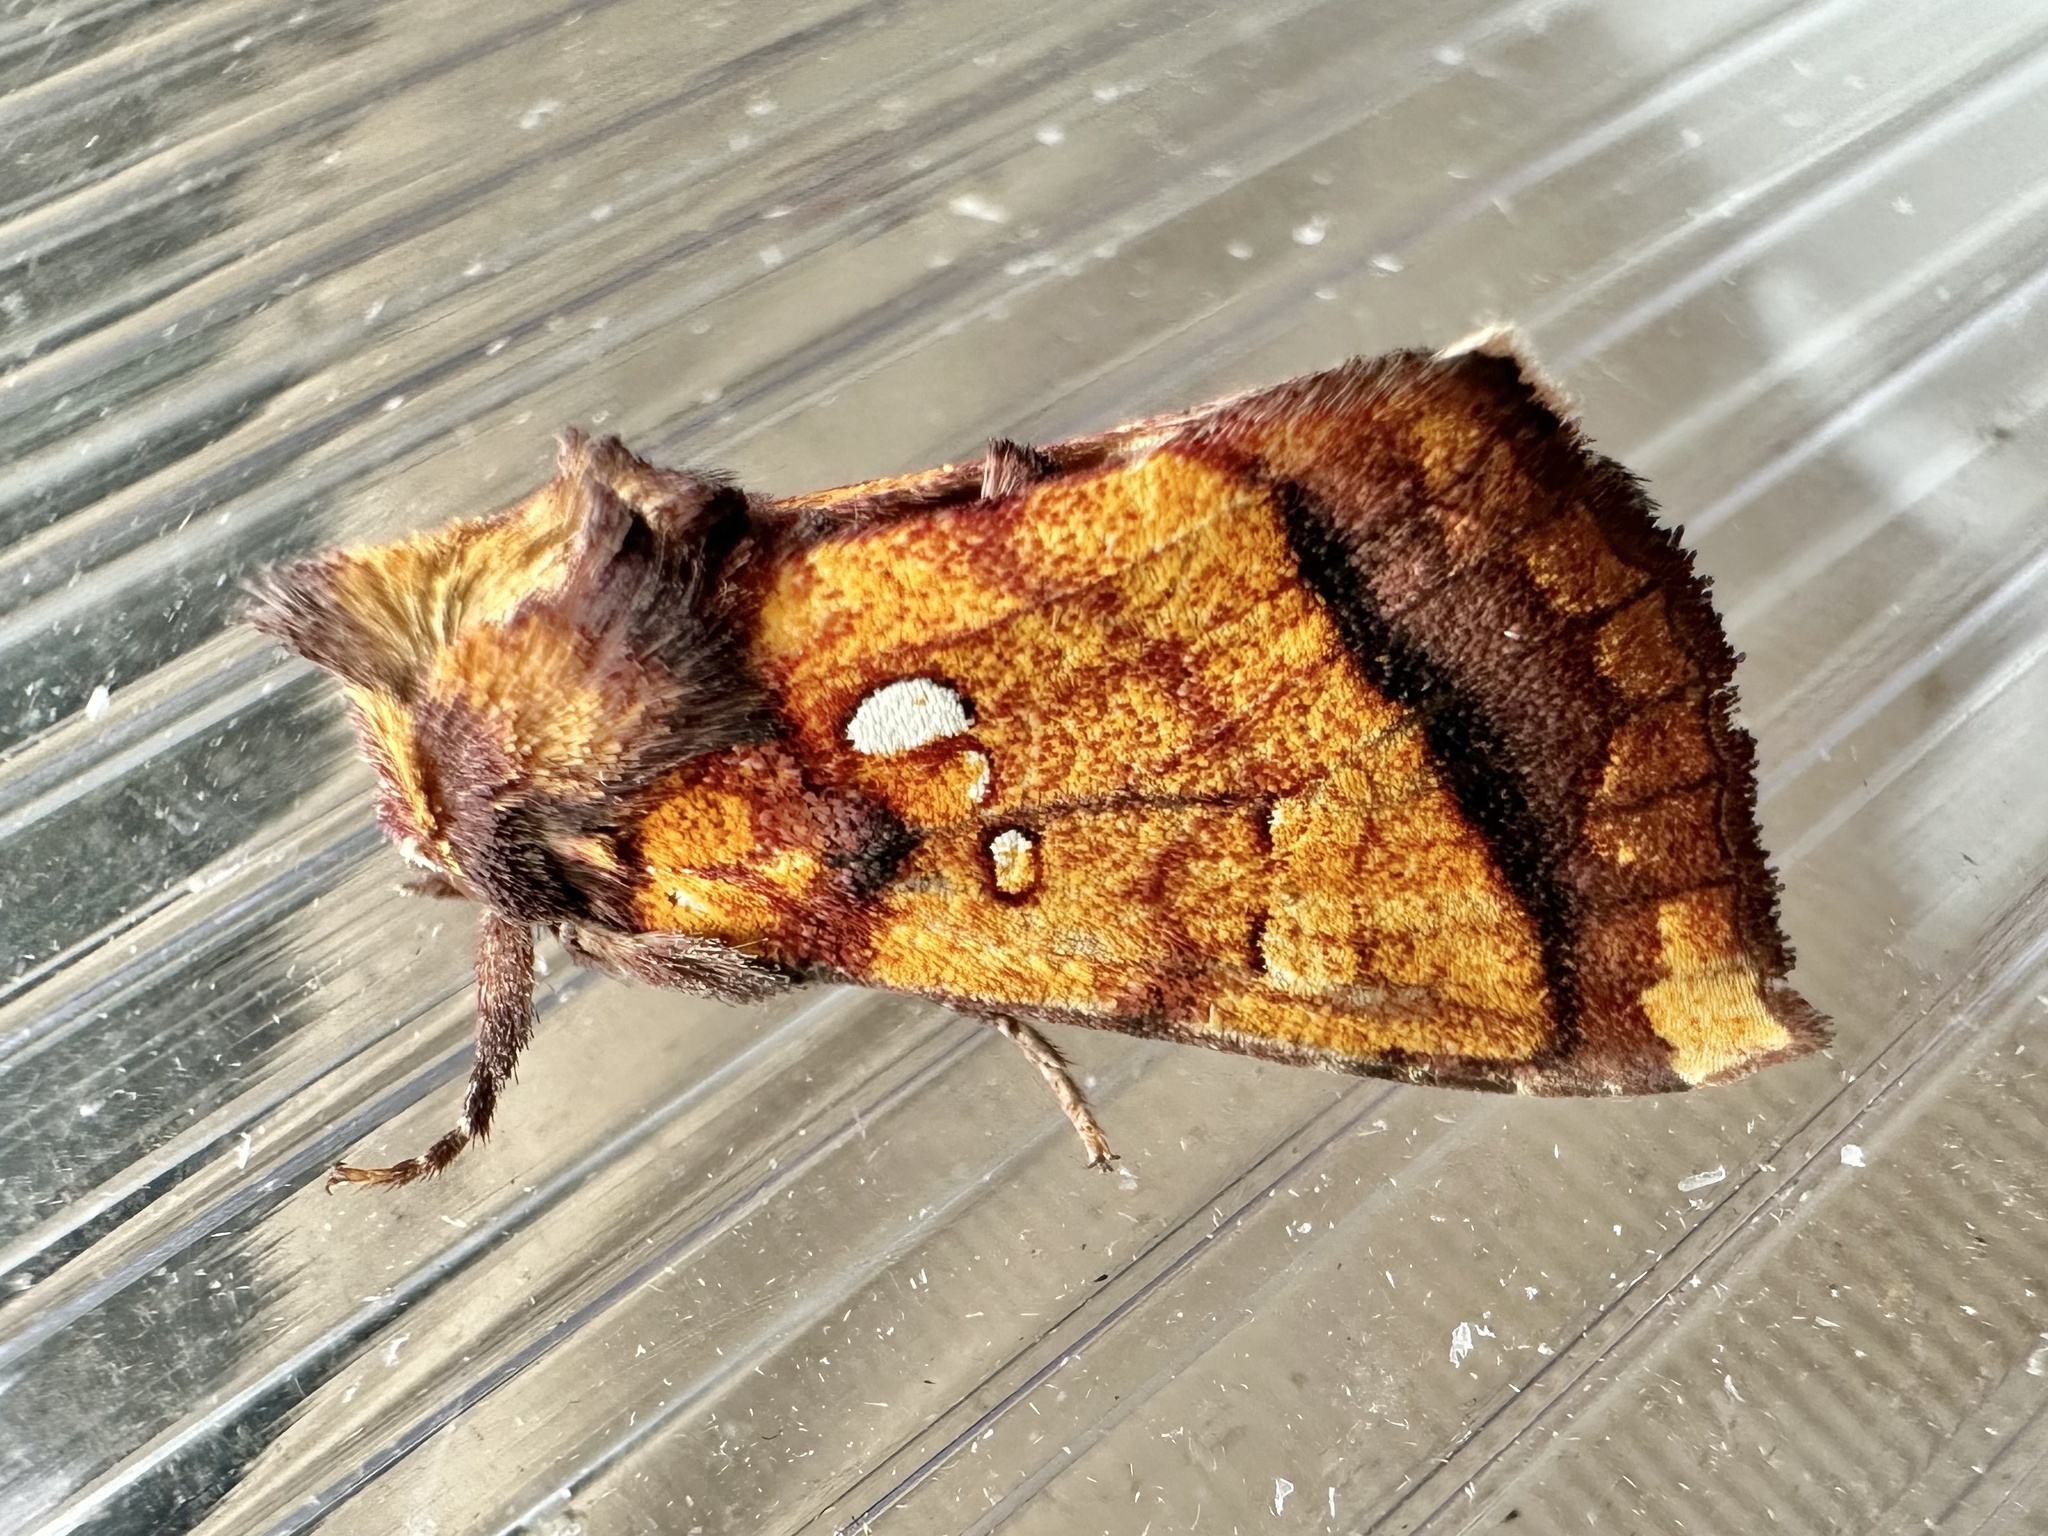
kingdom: Animalia
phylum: Arthropoda
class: Insecta
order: Lepidoptera
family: Noctuidae
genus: Papaipema
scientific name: Papaipema leucostigma
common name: Columbine borer moth
